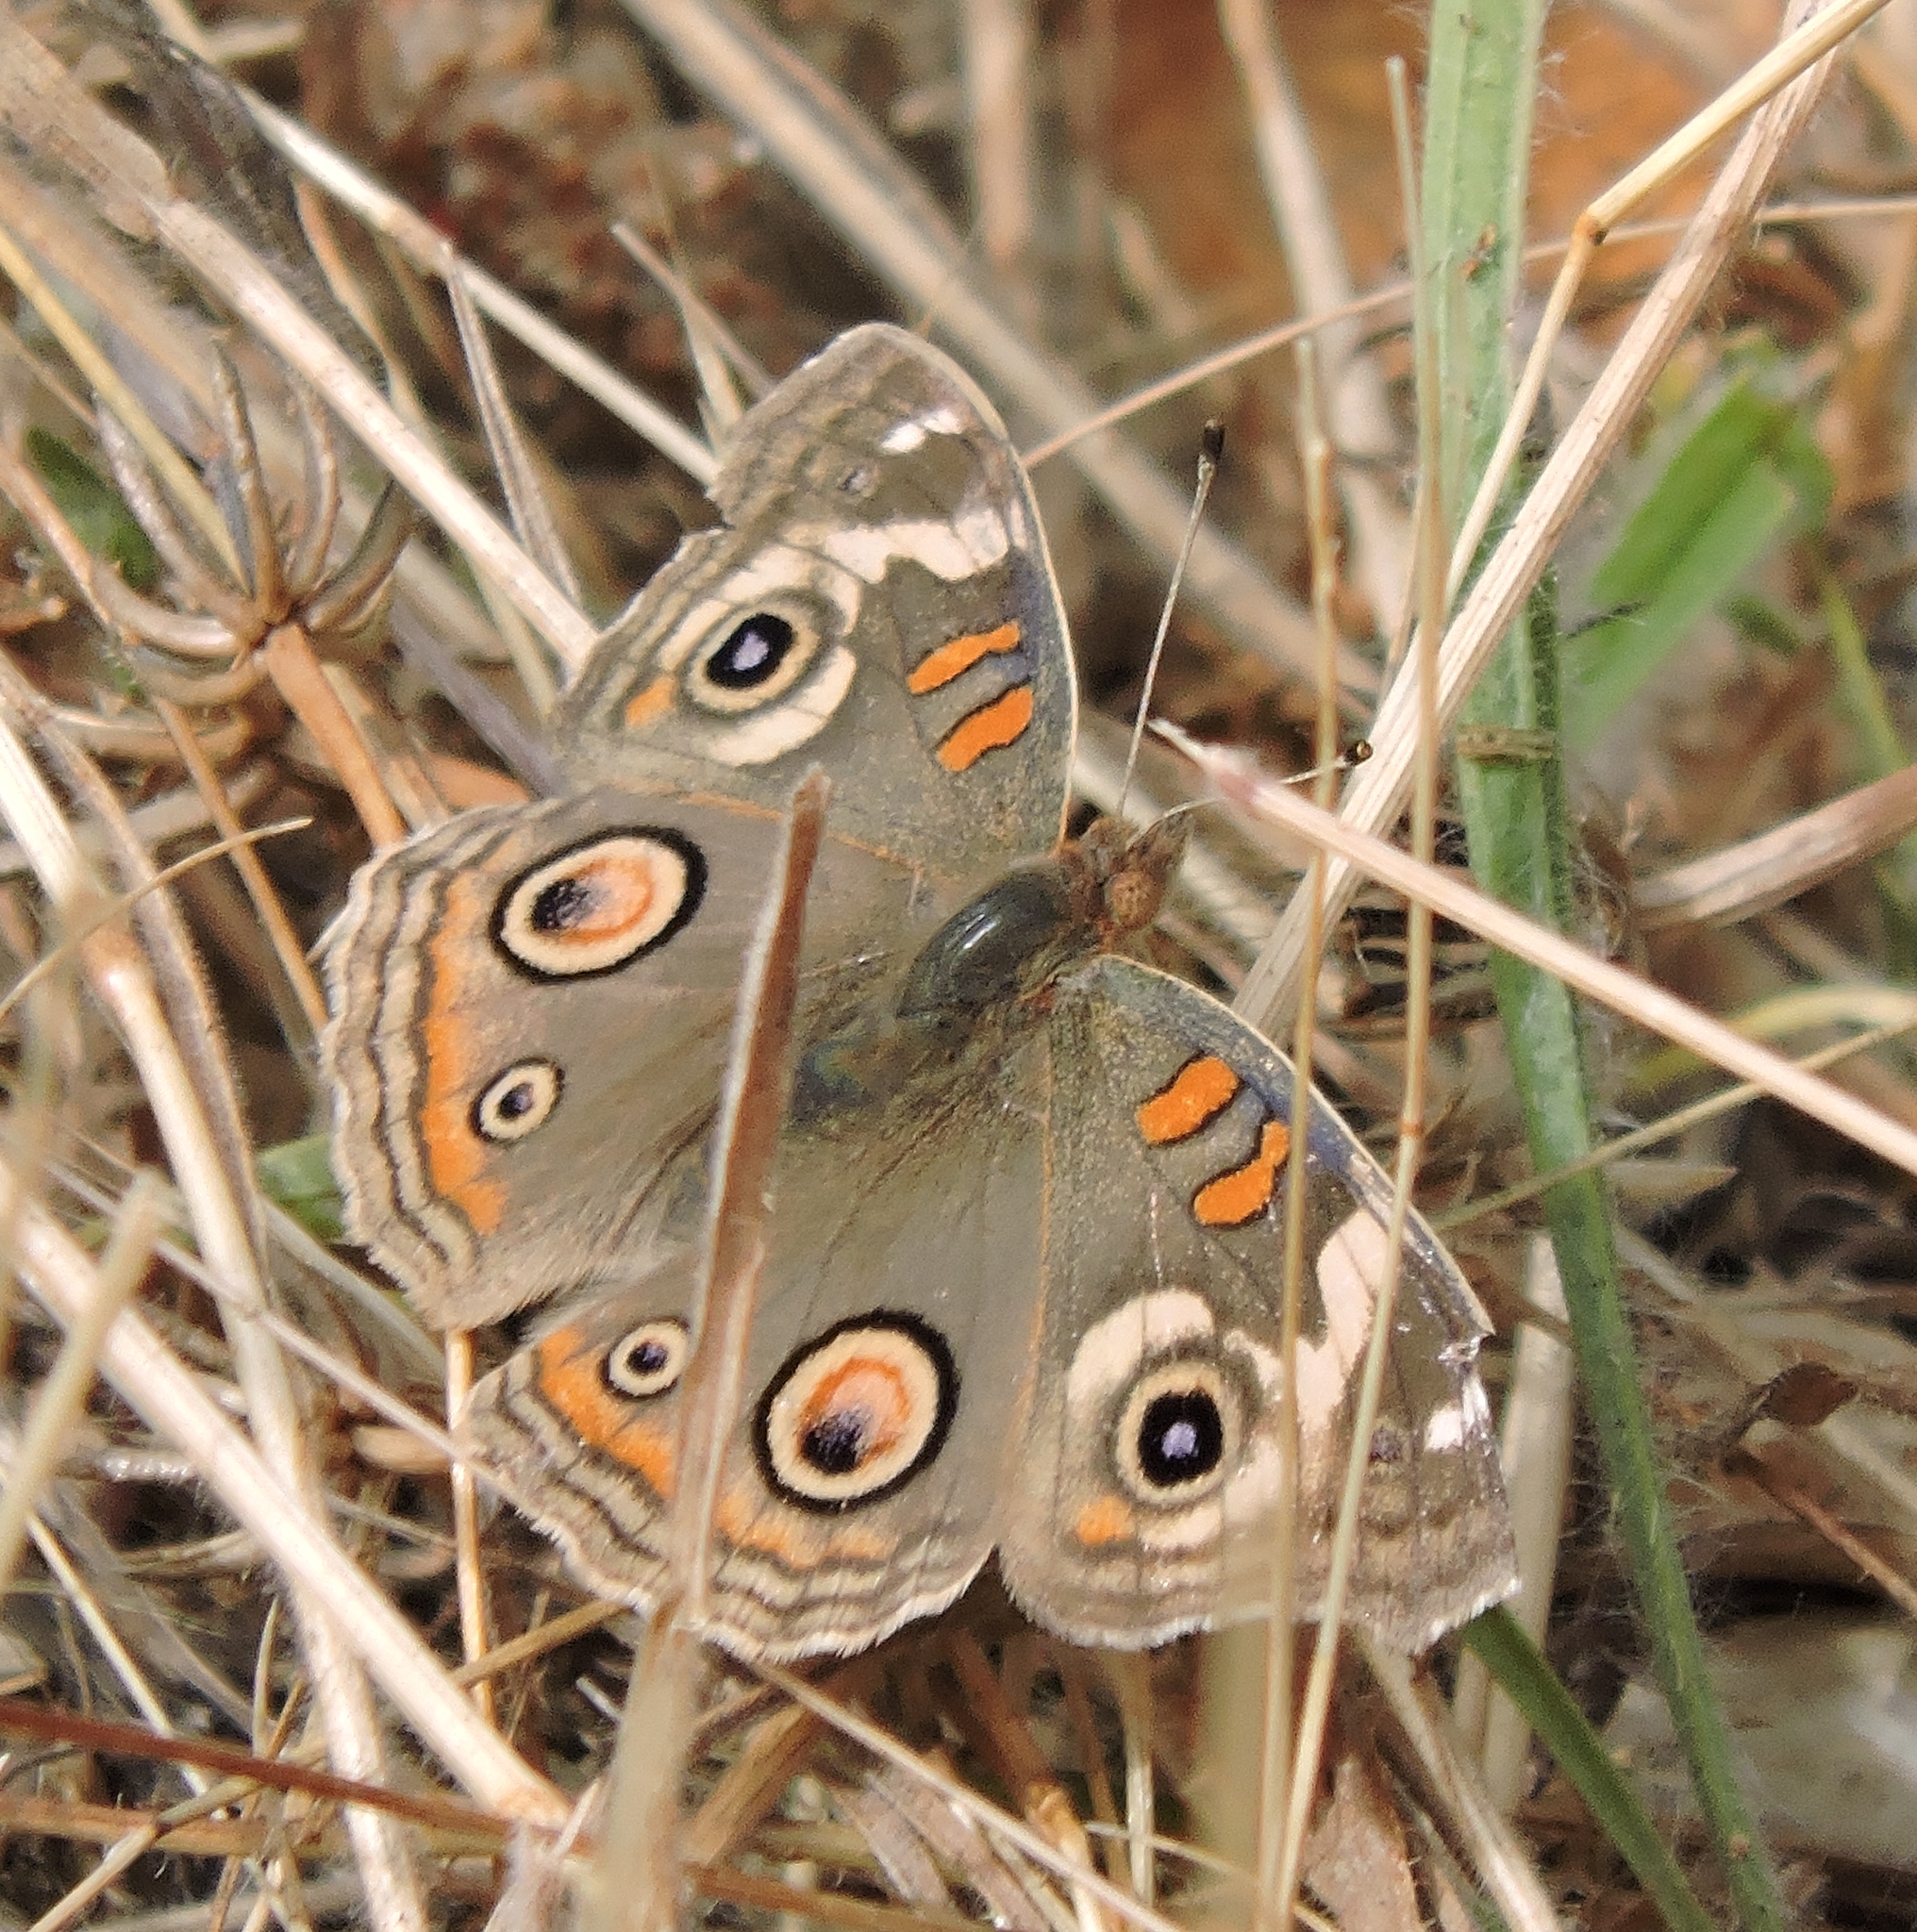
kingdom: Animalia
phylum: Arthropoda
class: Insecta
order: Lepidoptera
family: Nymphalidae
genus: Junonia
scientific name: Junonia grisea
